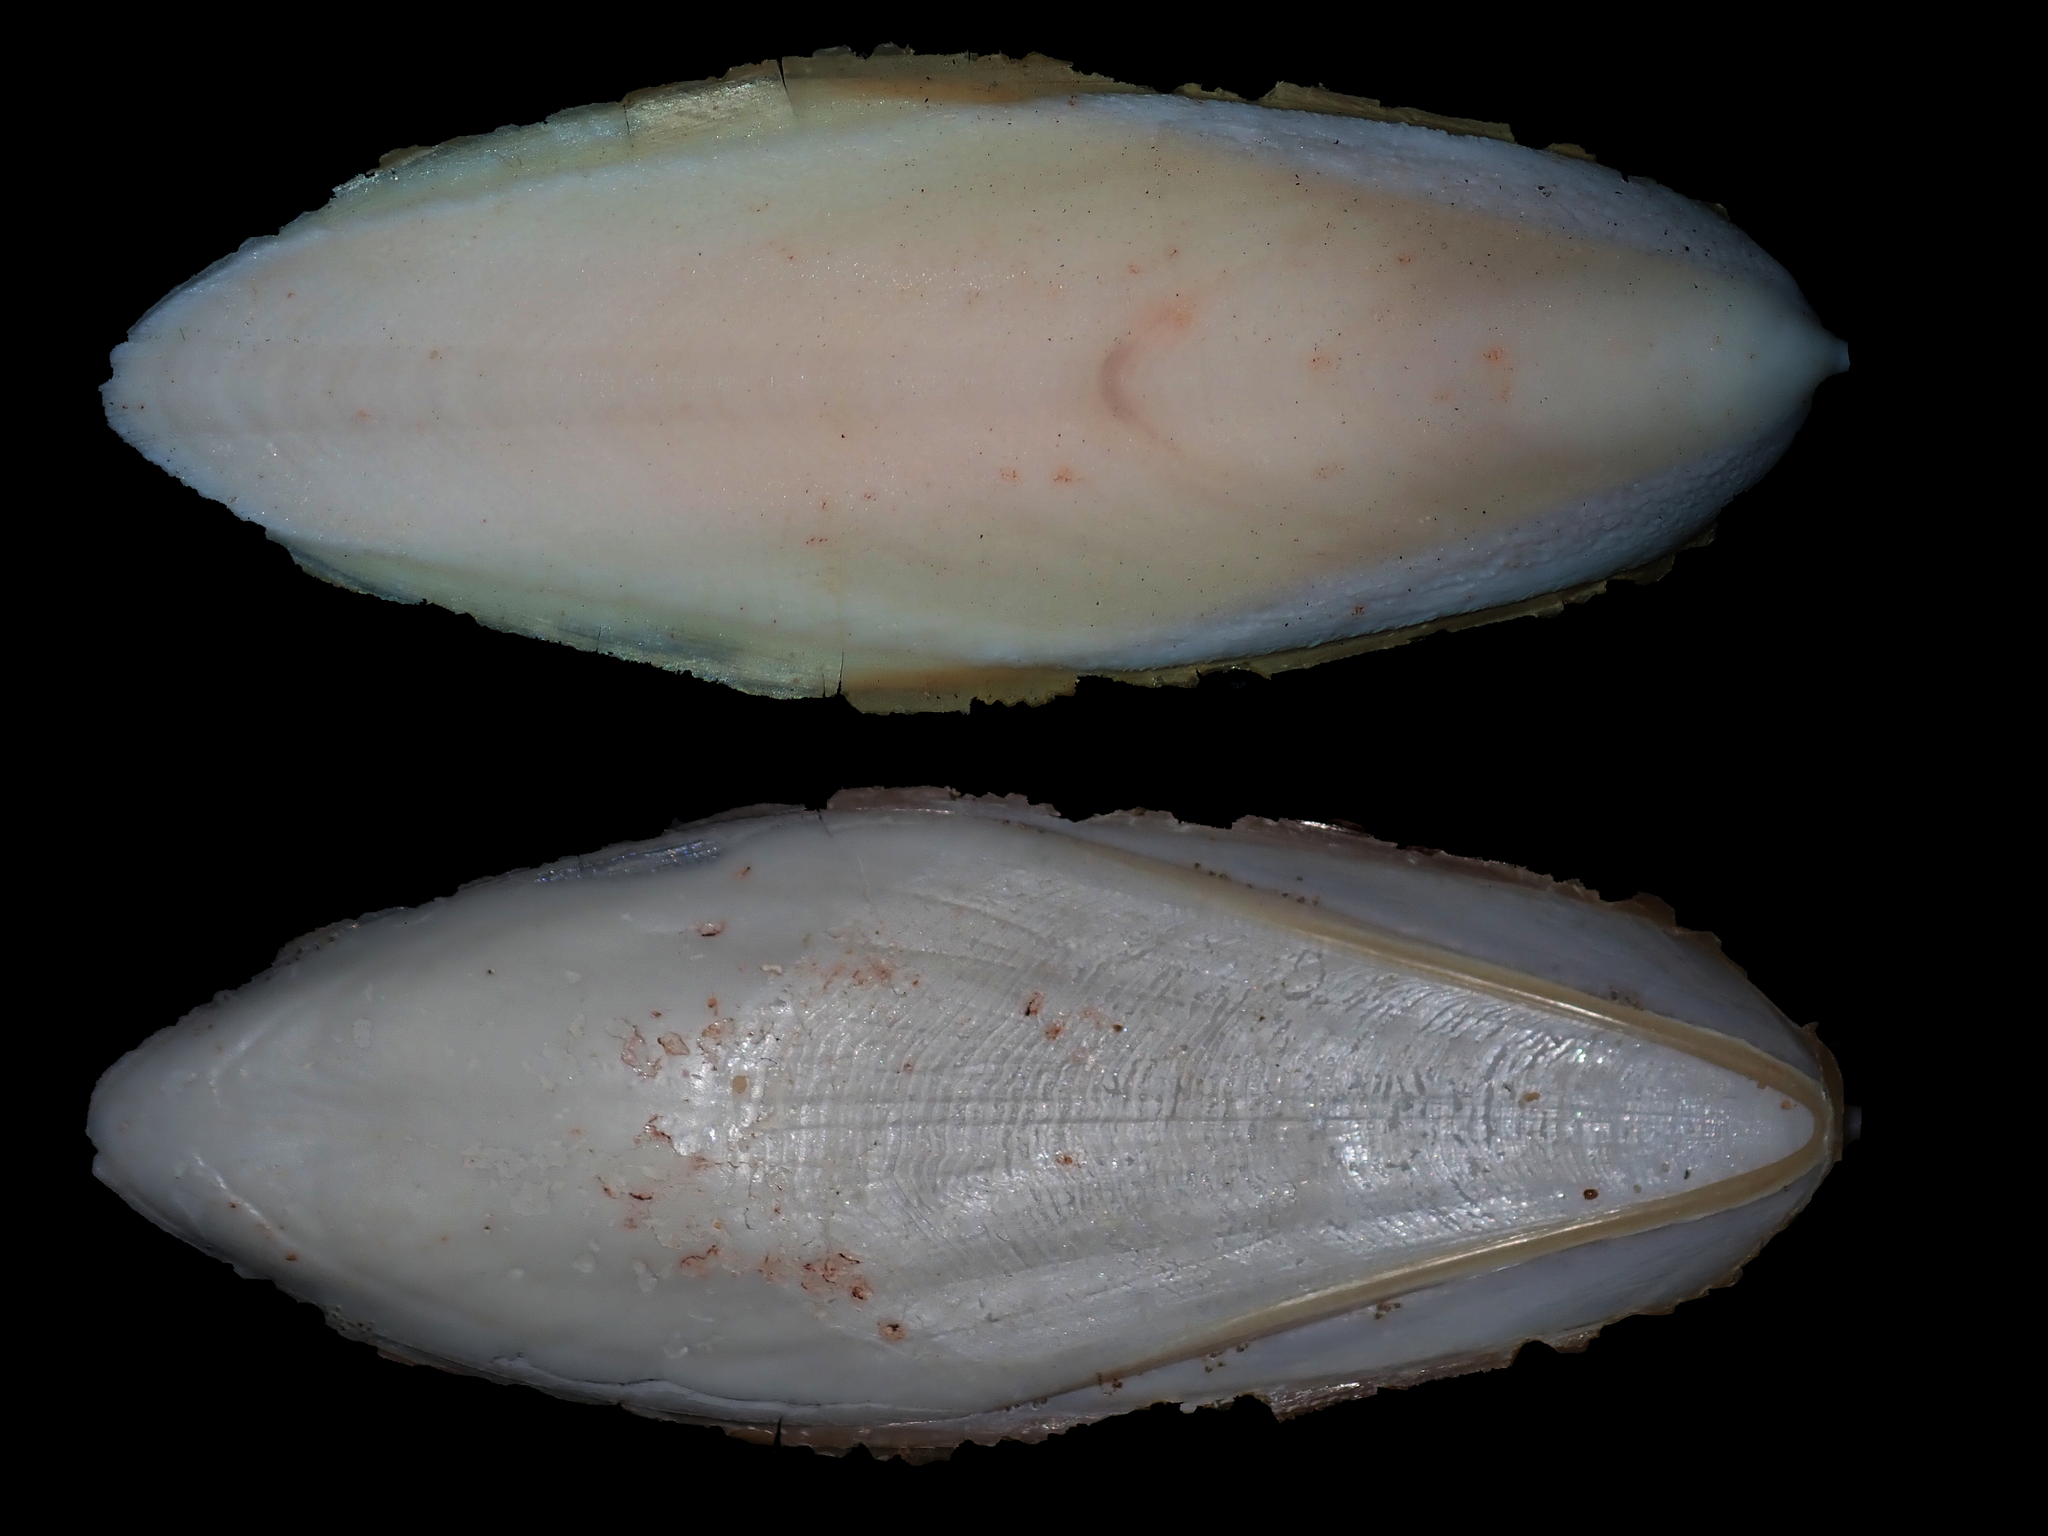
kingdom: Animalia
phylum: Mollusca
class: Cephalopoda
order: Sepiida
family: Sepiidae
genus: Decorisepia
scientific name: Decorisepia hedleyi
